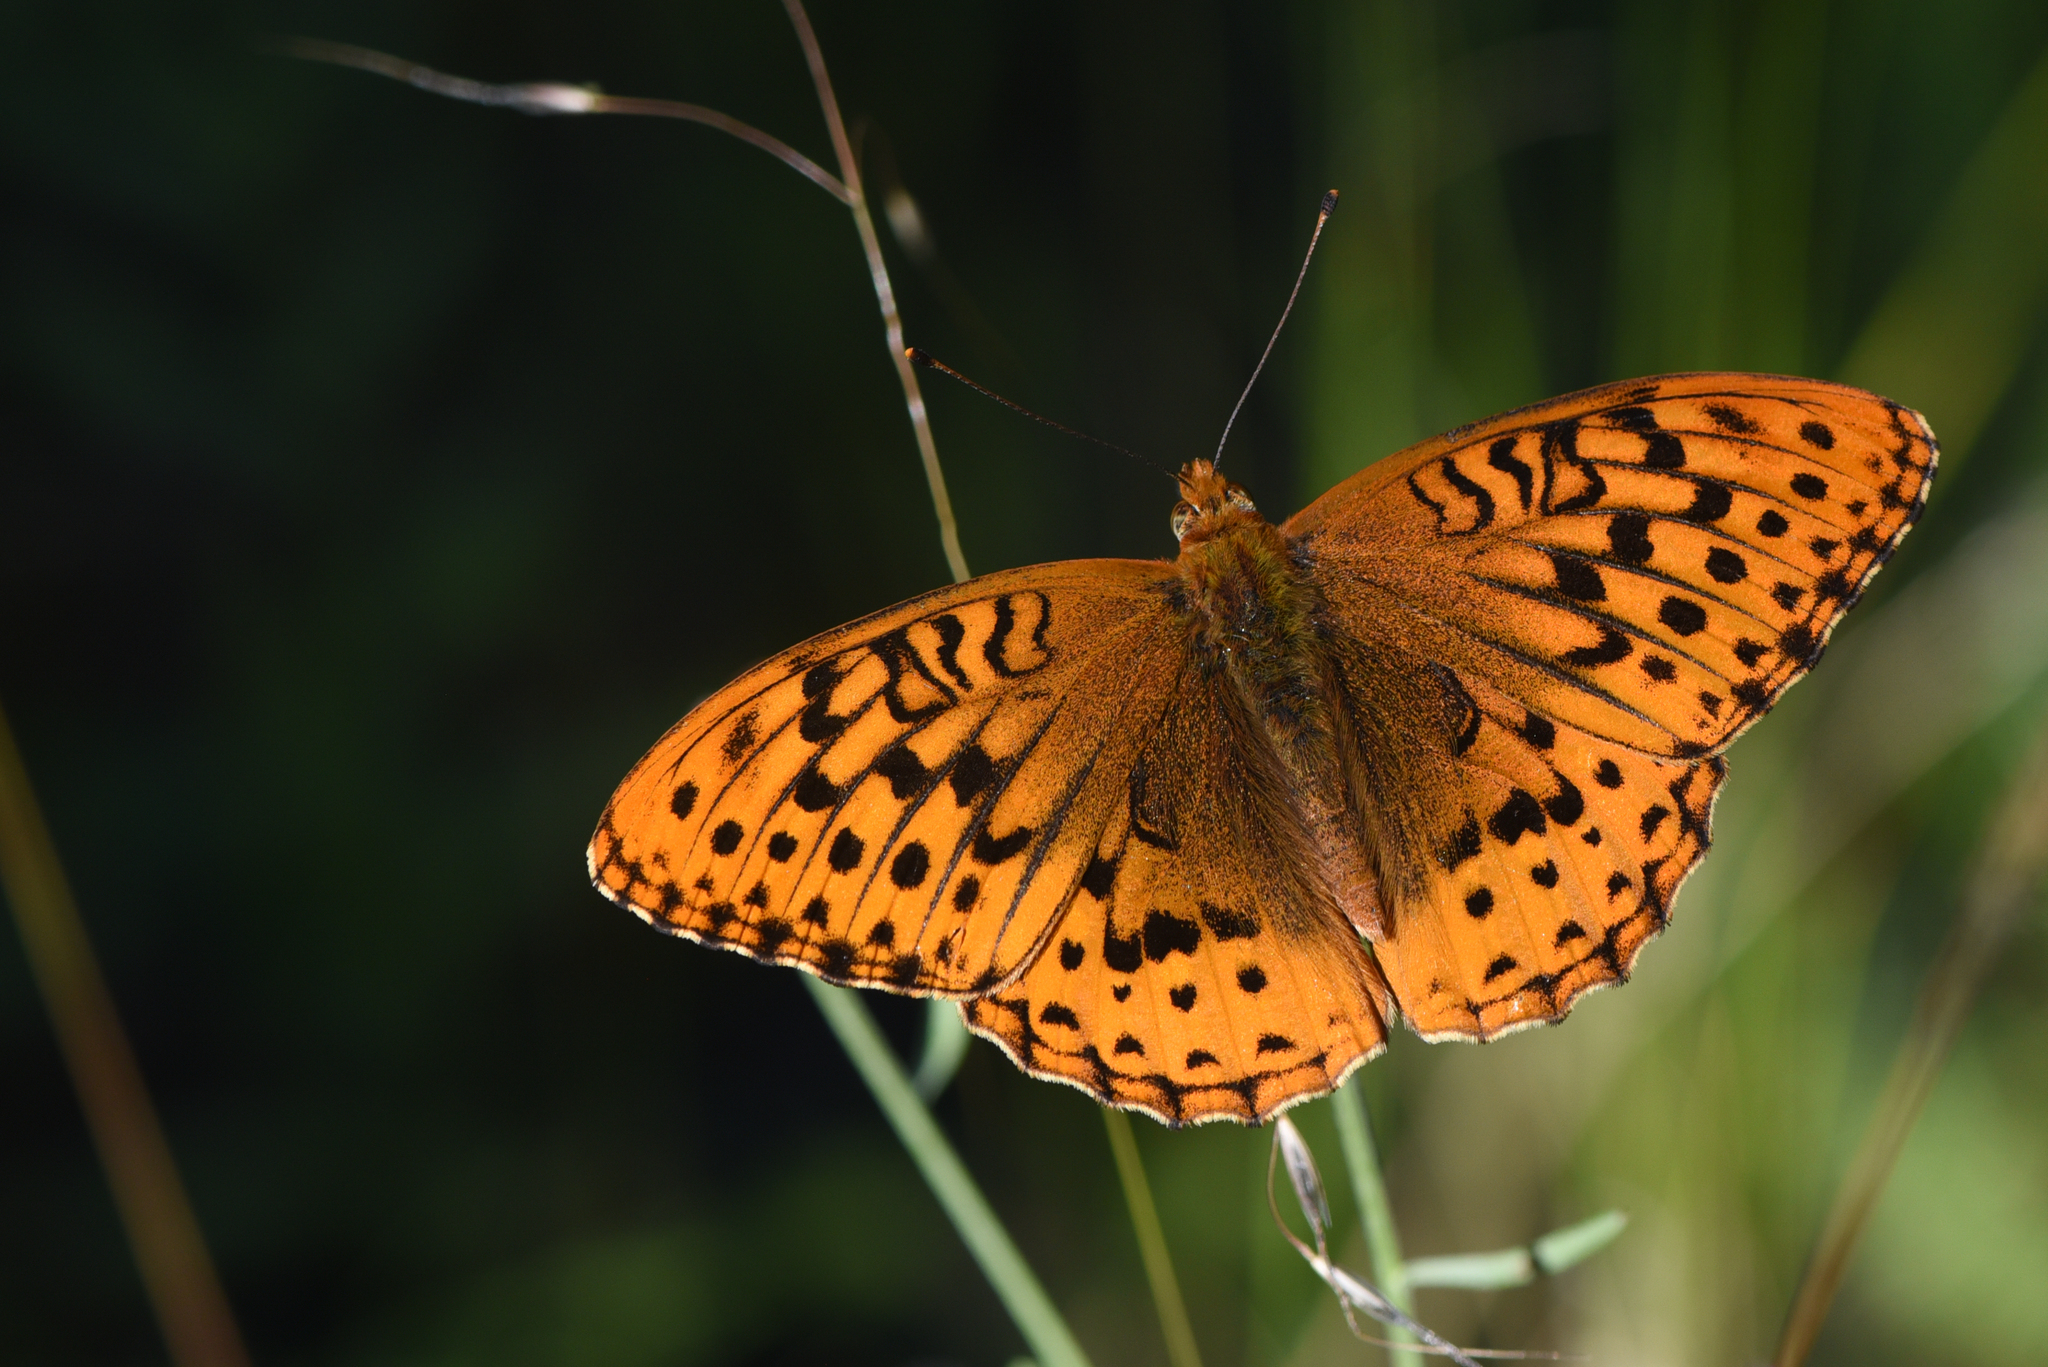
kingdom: Animalia
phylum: Arthropoda
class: Insecta
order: Lepidoptera
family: Nymphalidae
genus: Speyeria
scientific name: Speyeria cybele
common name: Great spangled fritillary
